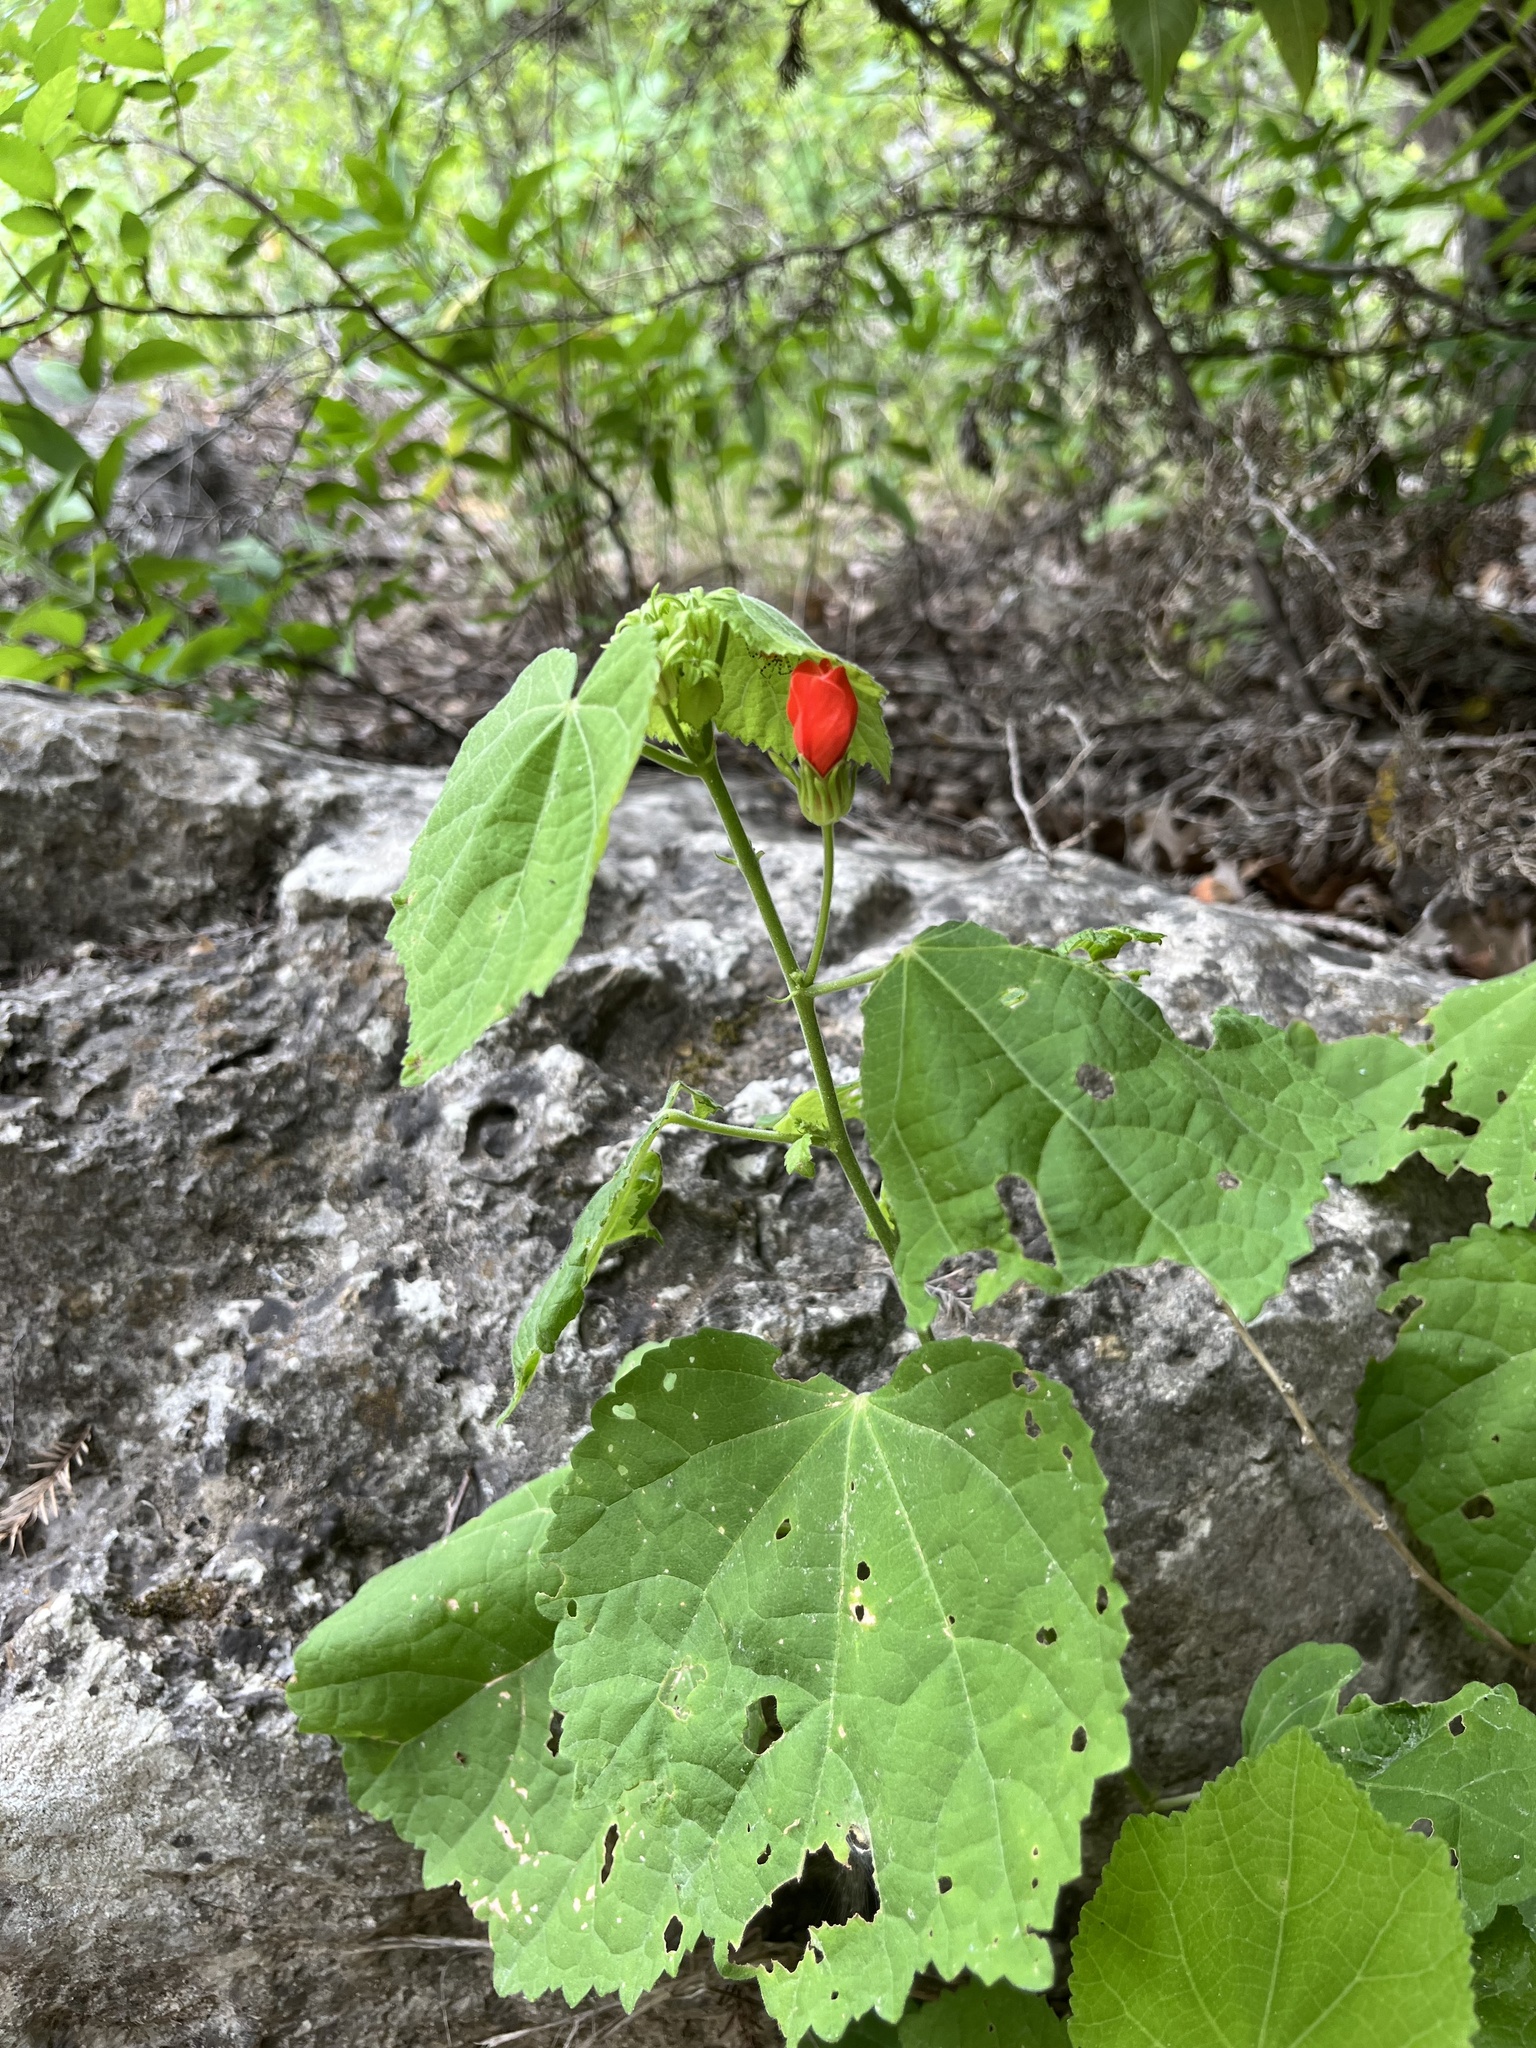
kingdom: Plantae
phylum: Tracheophyta
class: Magnoliopsida
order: Malvales
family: Malvaceae
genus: Malvaviscus
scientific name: Malvaviscus arboreus
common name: Wax mallow
